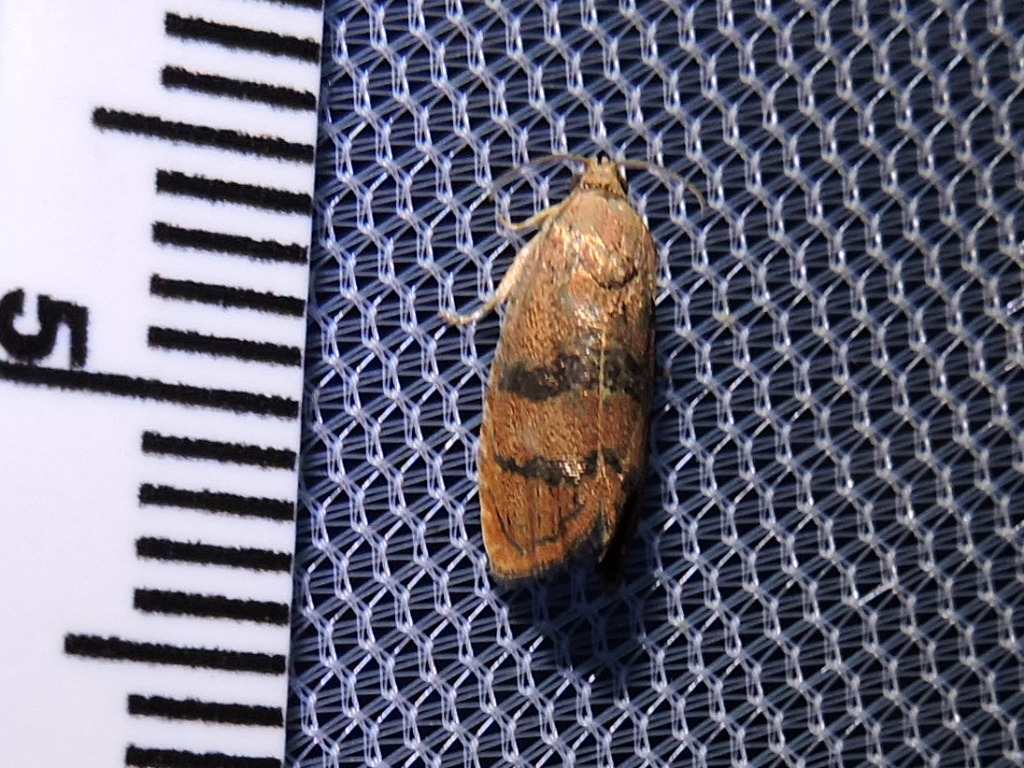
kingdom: Animalia
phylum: Arthropoda
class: Insecta
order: Lepidoptera
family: Tortricidae
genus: Cydia
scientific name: Cydia latiferreana
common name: Filbertworm moth
